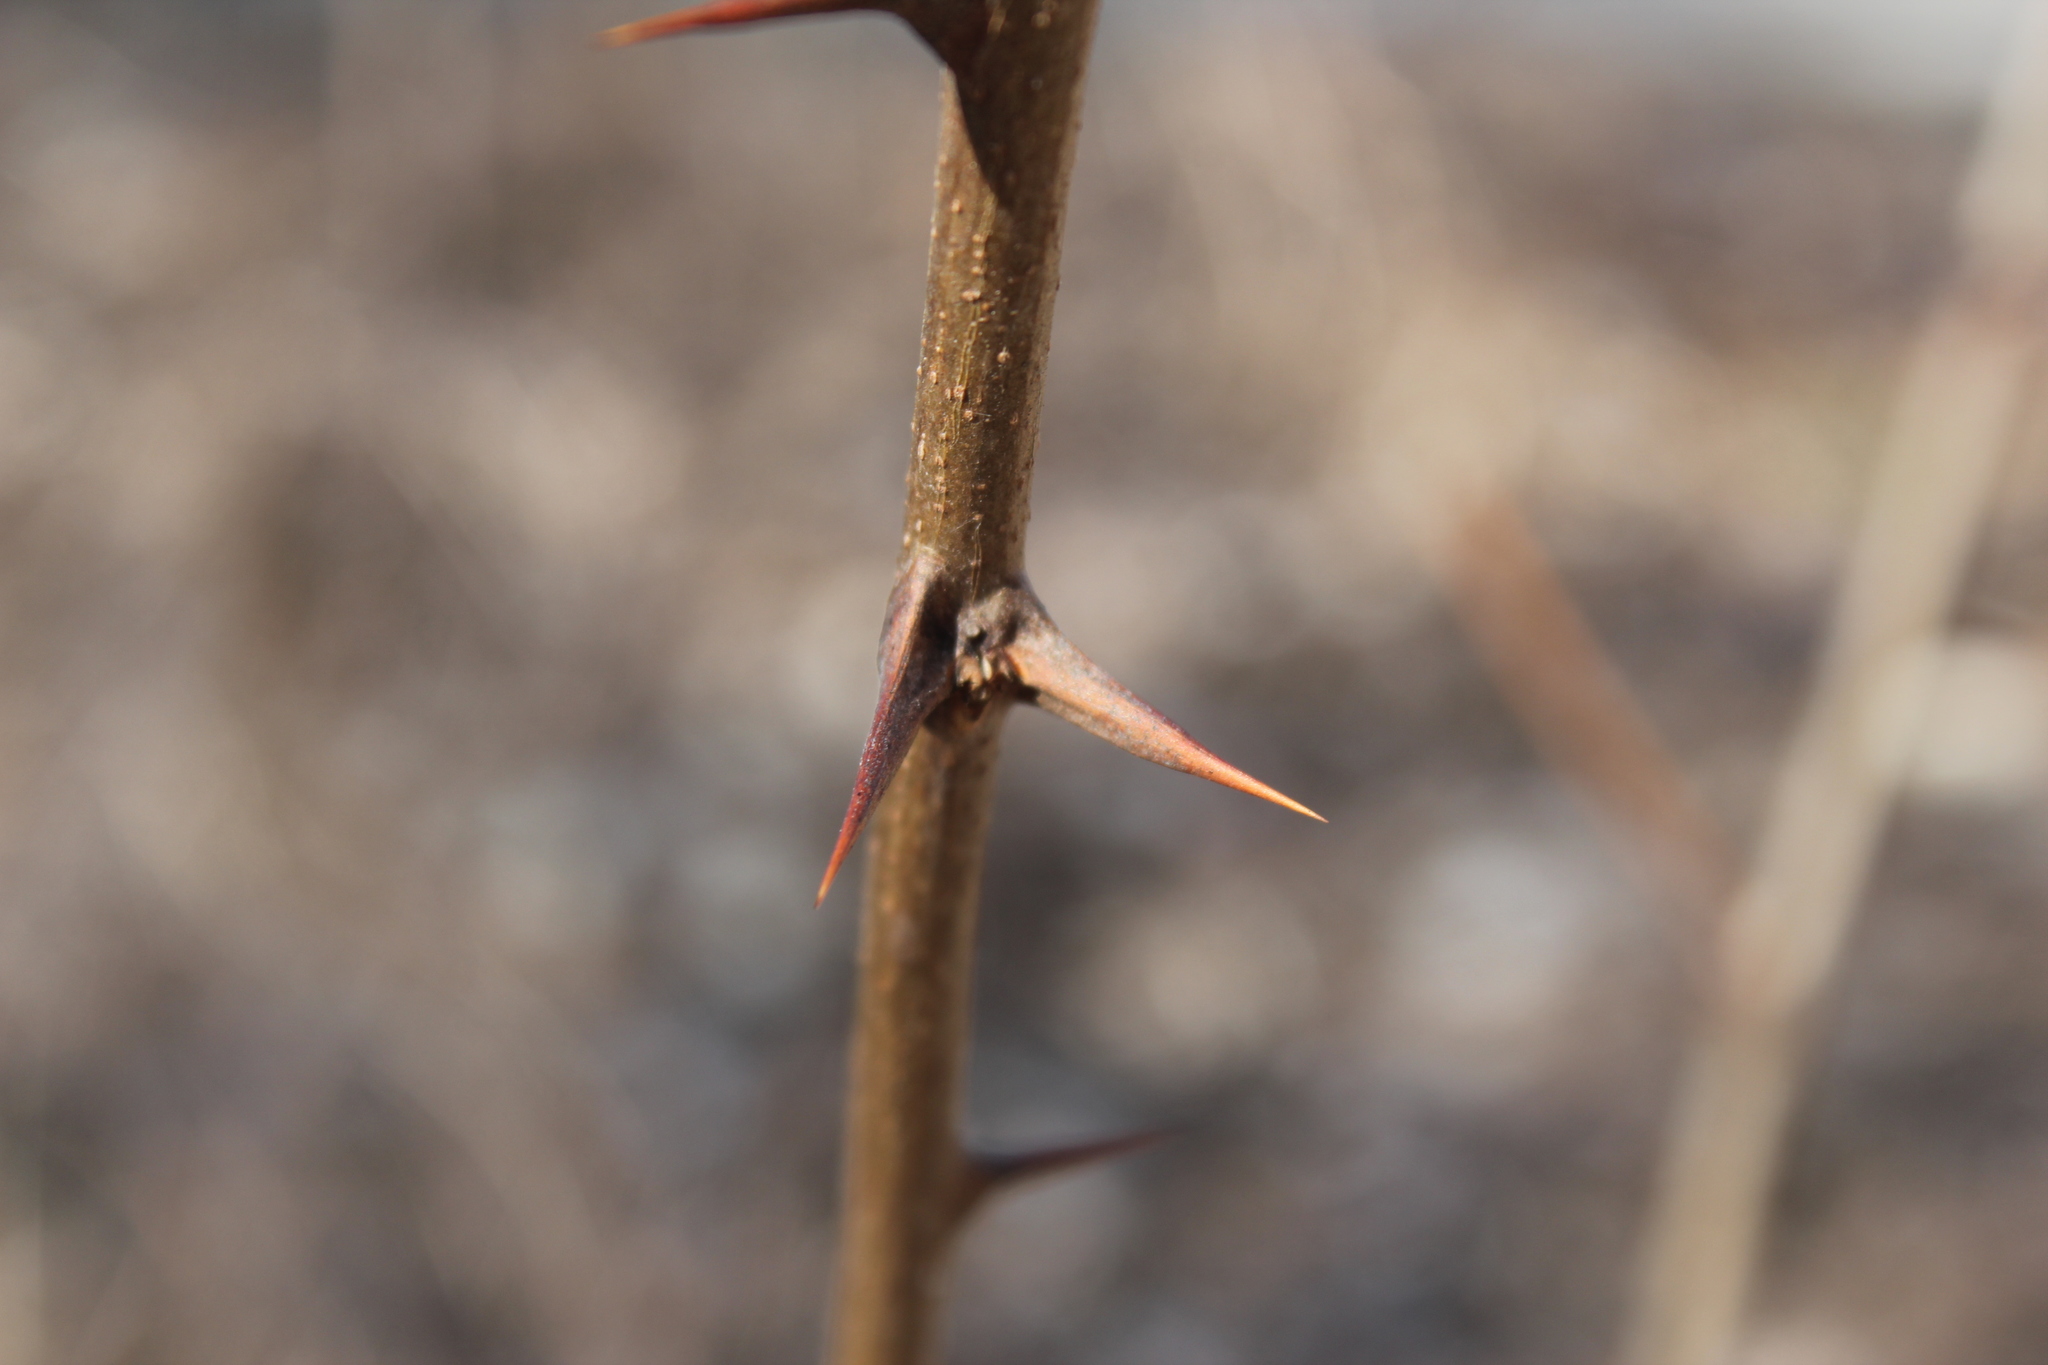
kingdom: Plantae
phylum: Tracheophyta
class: Magnoliopsida
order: Fabales
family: Fabaceae
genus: Robinia
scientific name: Robinia pseudoacacia
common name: Black locust
